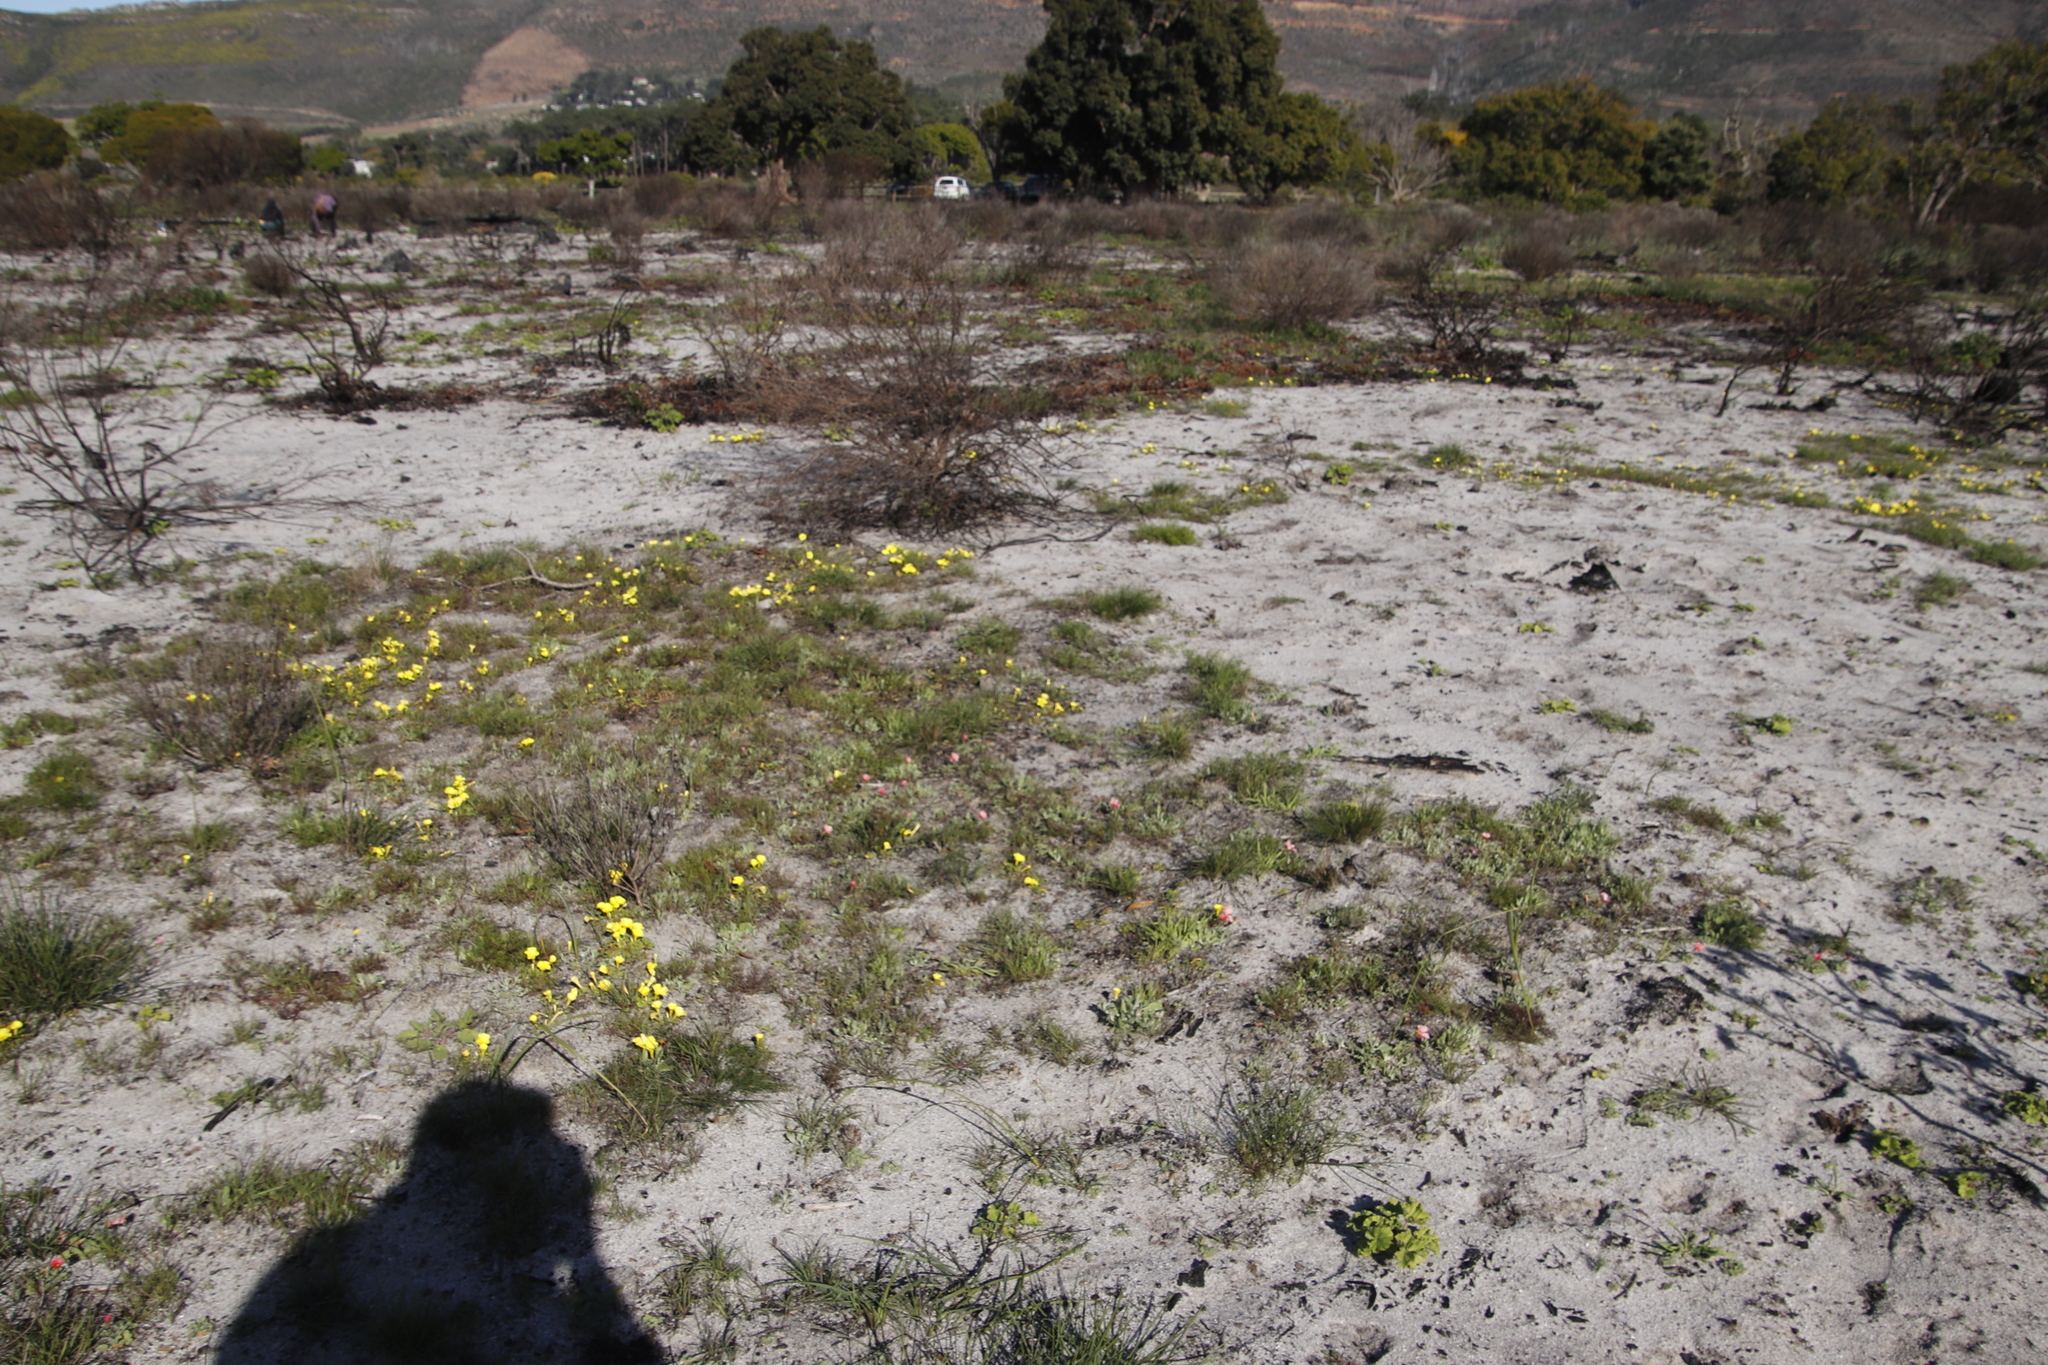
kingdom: Plantae
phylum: Tracheophyta
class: Magnoliopsida
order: Oxalidales
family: Oxalidaceae
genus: Oxalis
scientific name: Oxalis luteola
